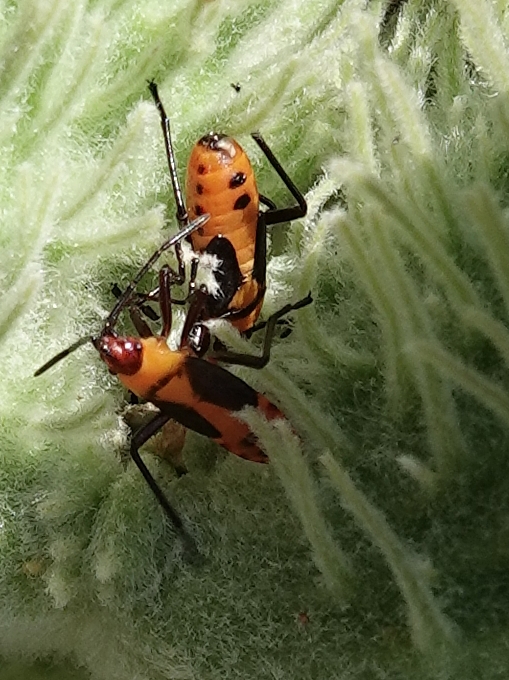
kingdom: Animalia
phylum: Arthropoda
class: Insecta
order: Hemiptera
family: Lygaeidae
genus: Oncopeltus
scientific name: Oncopeltus fasciatus
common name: Large milkweed bug
